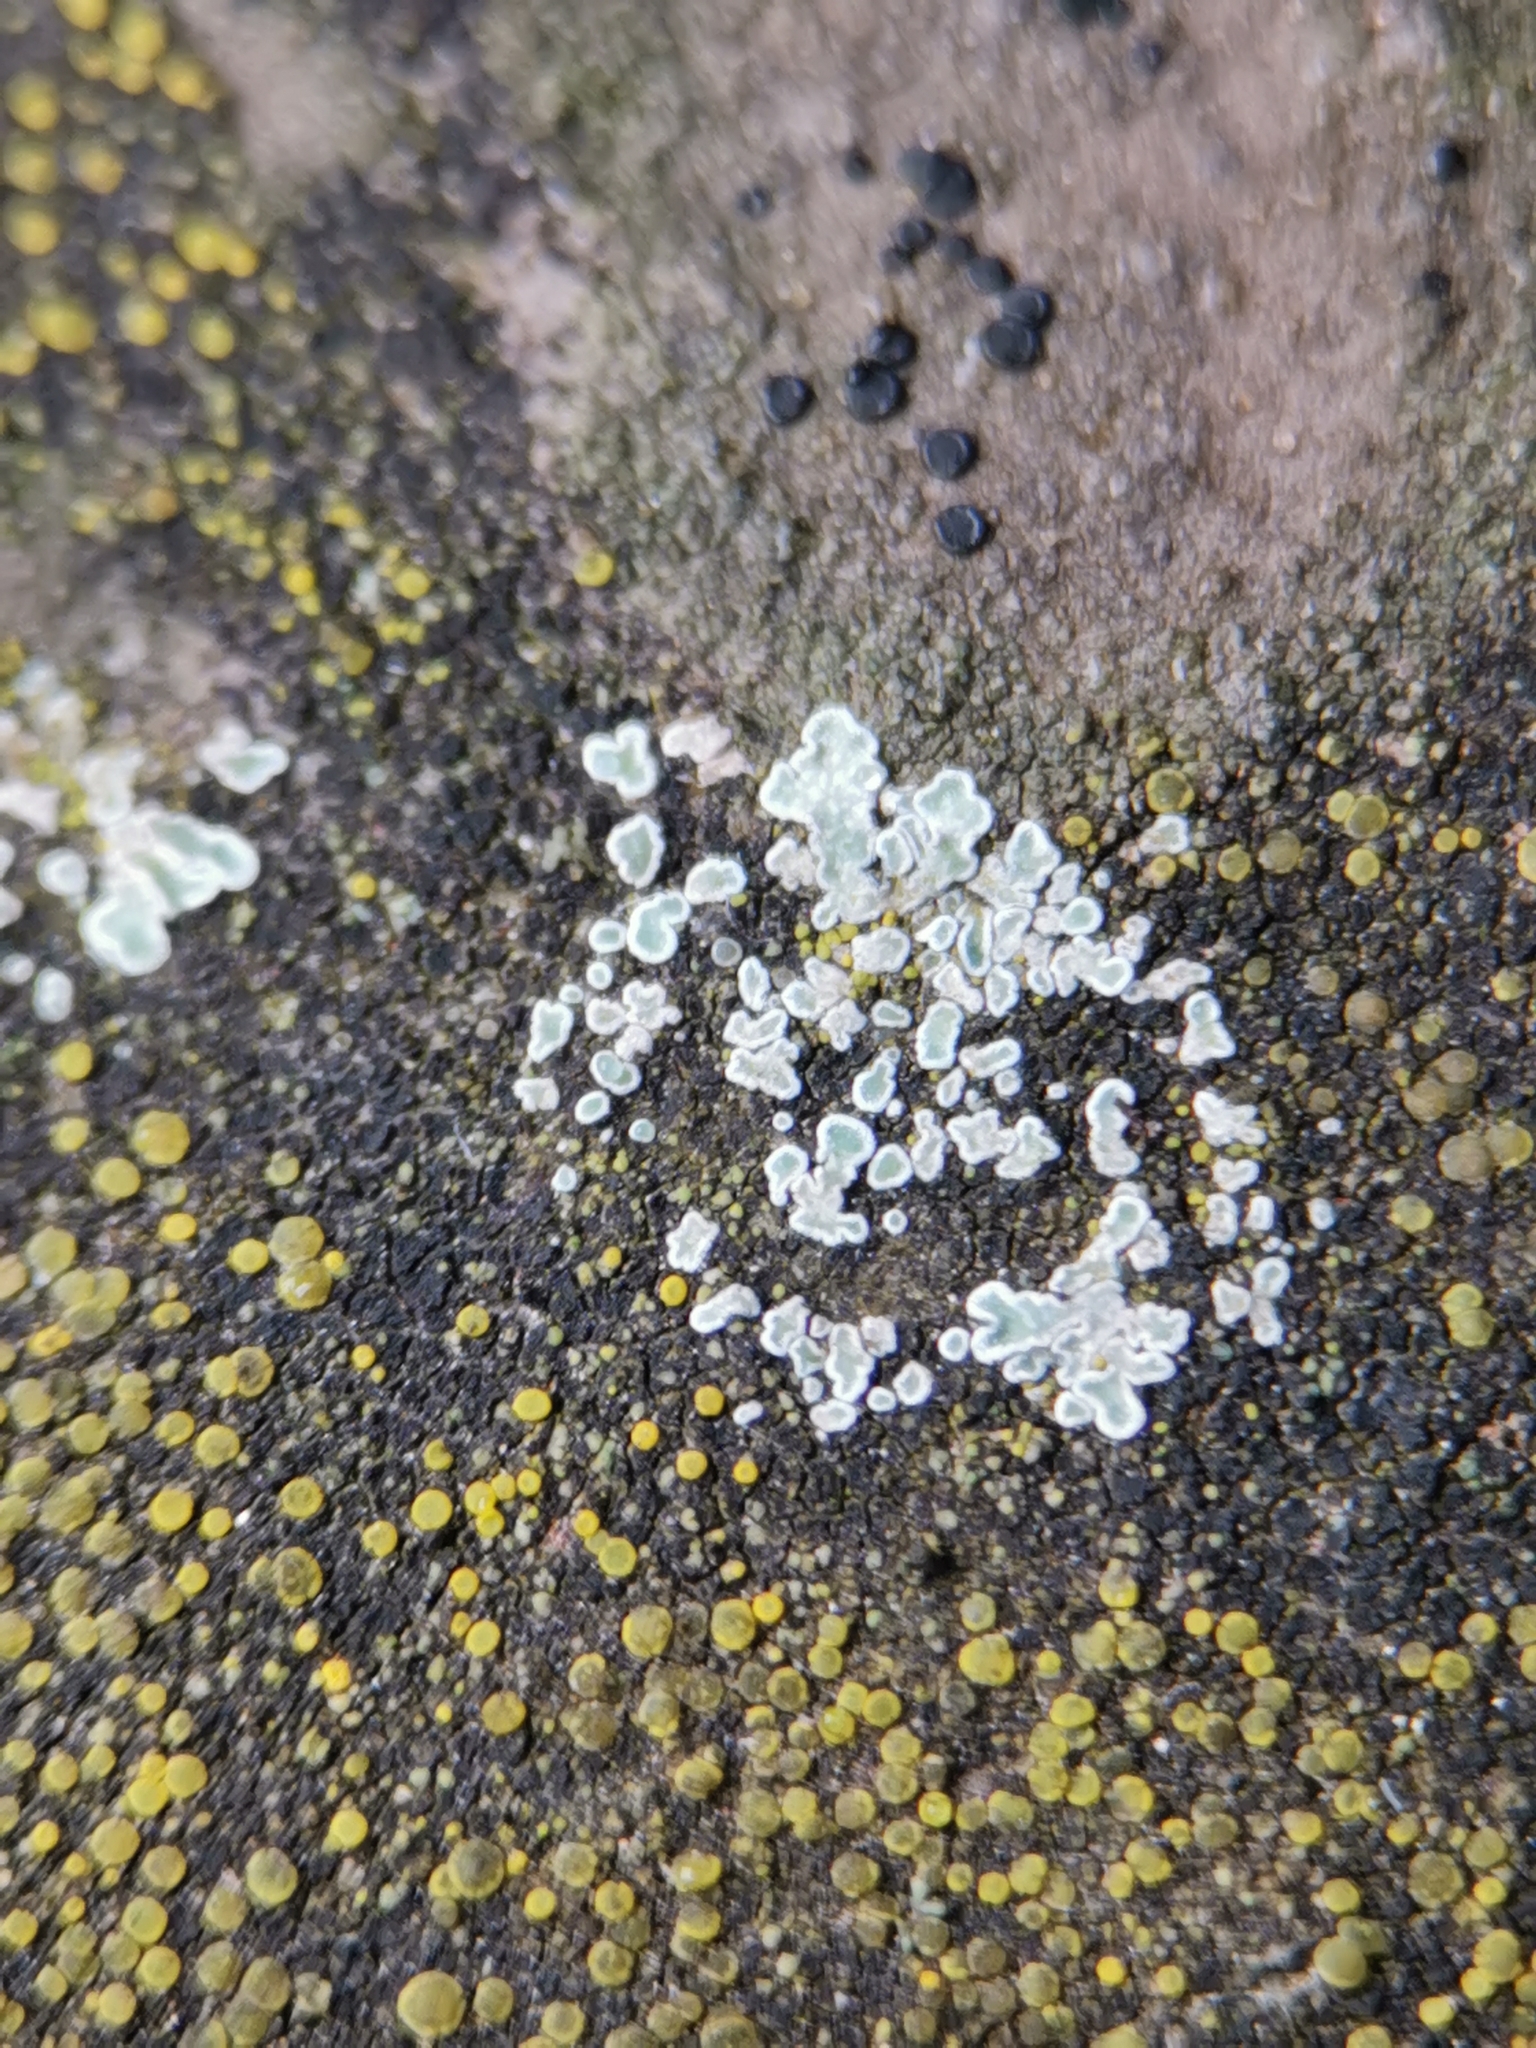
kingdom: Fungi
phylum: Ascomycota
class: Lecanoromycetes
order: Lecanorales
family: Lecanoraceae
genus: Protoparmeliopsis
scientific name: Protoparmeliopsis muralis
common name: Stonewall rim lichen
